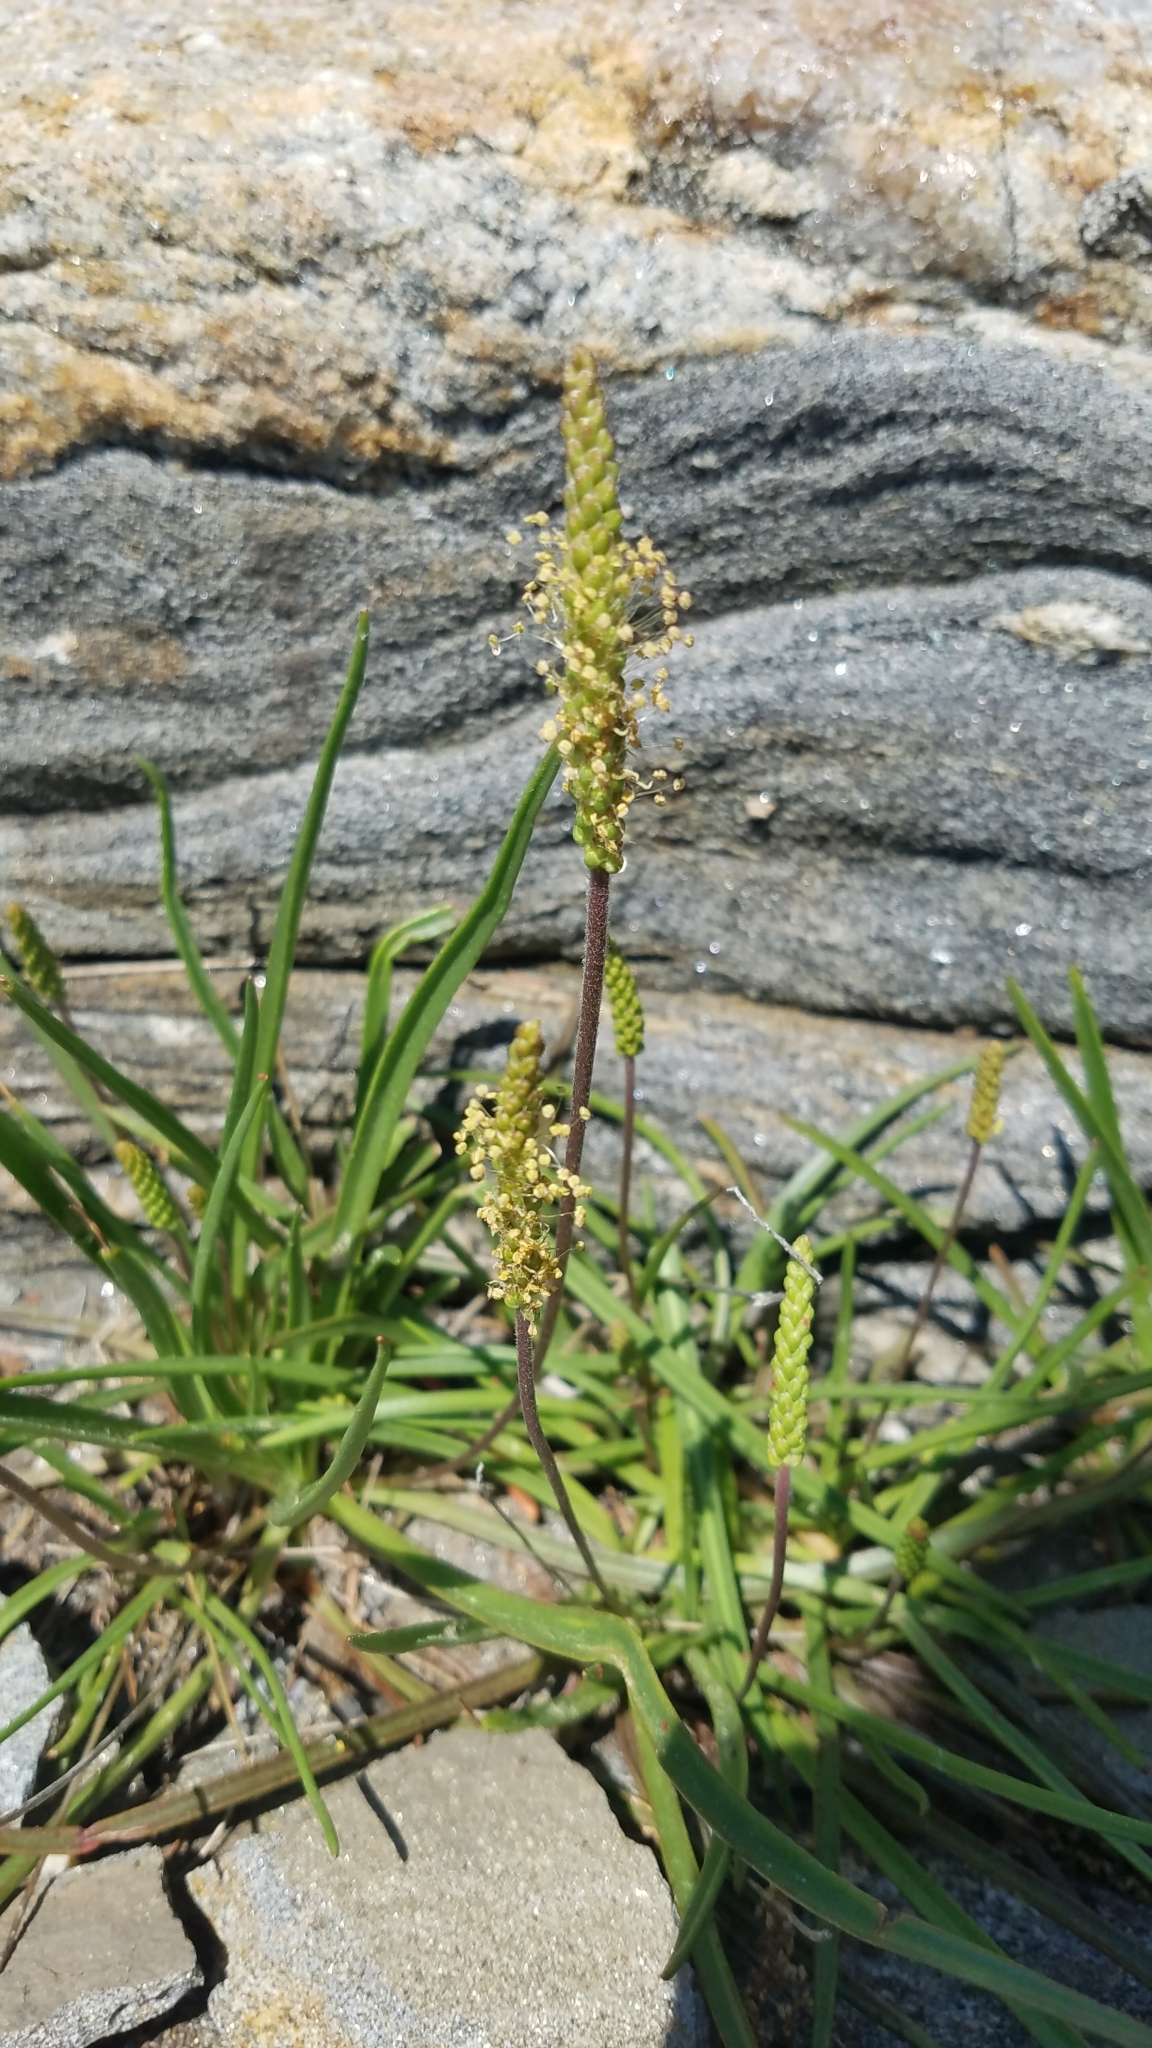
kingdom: Plantae
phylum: Tracheophyta
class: Magnoliopsida
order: Lamiales
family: Plantaginaceae
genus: Plantago
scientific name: Plantago maritima
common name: Sea plantain
